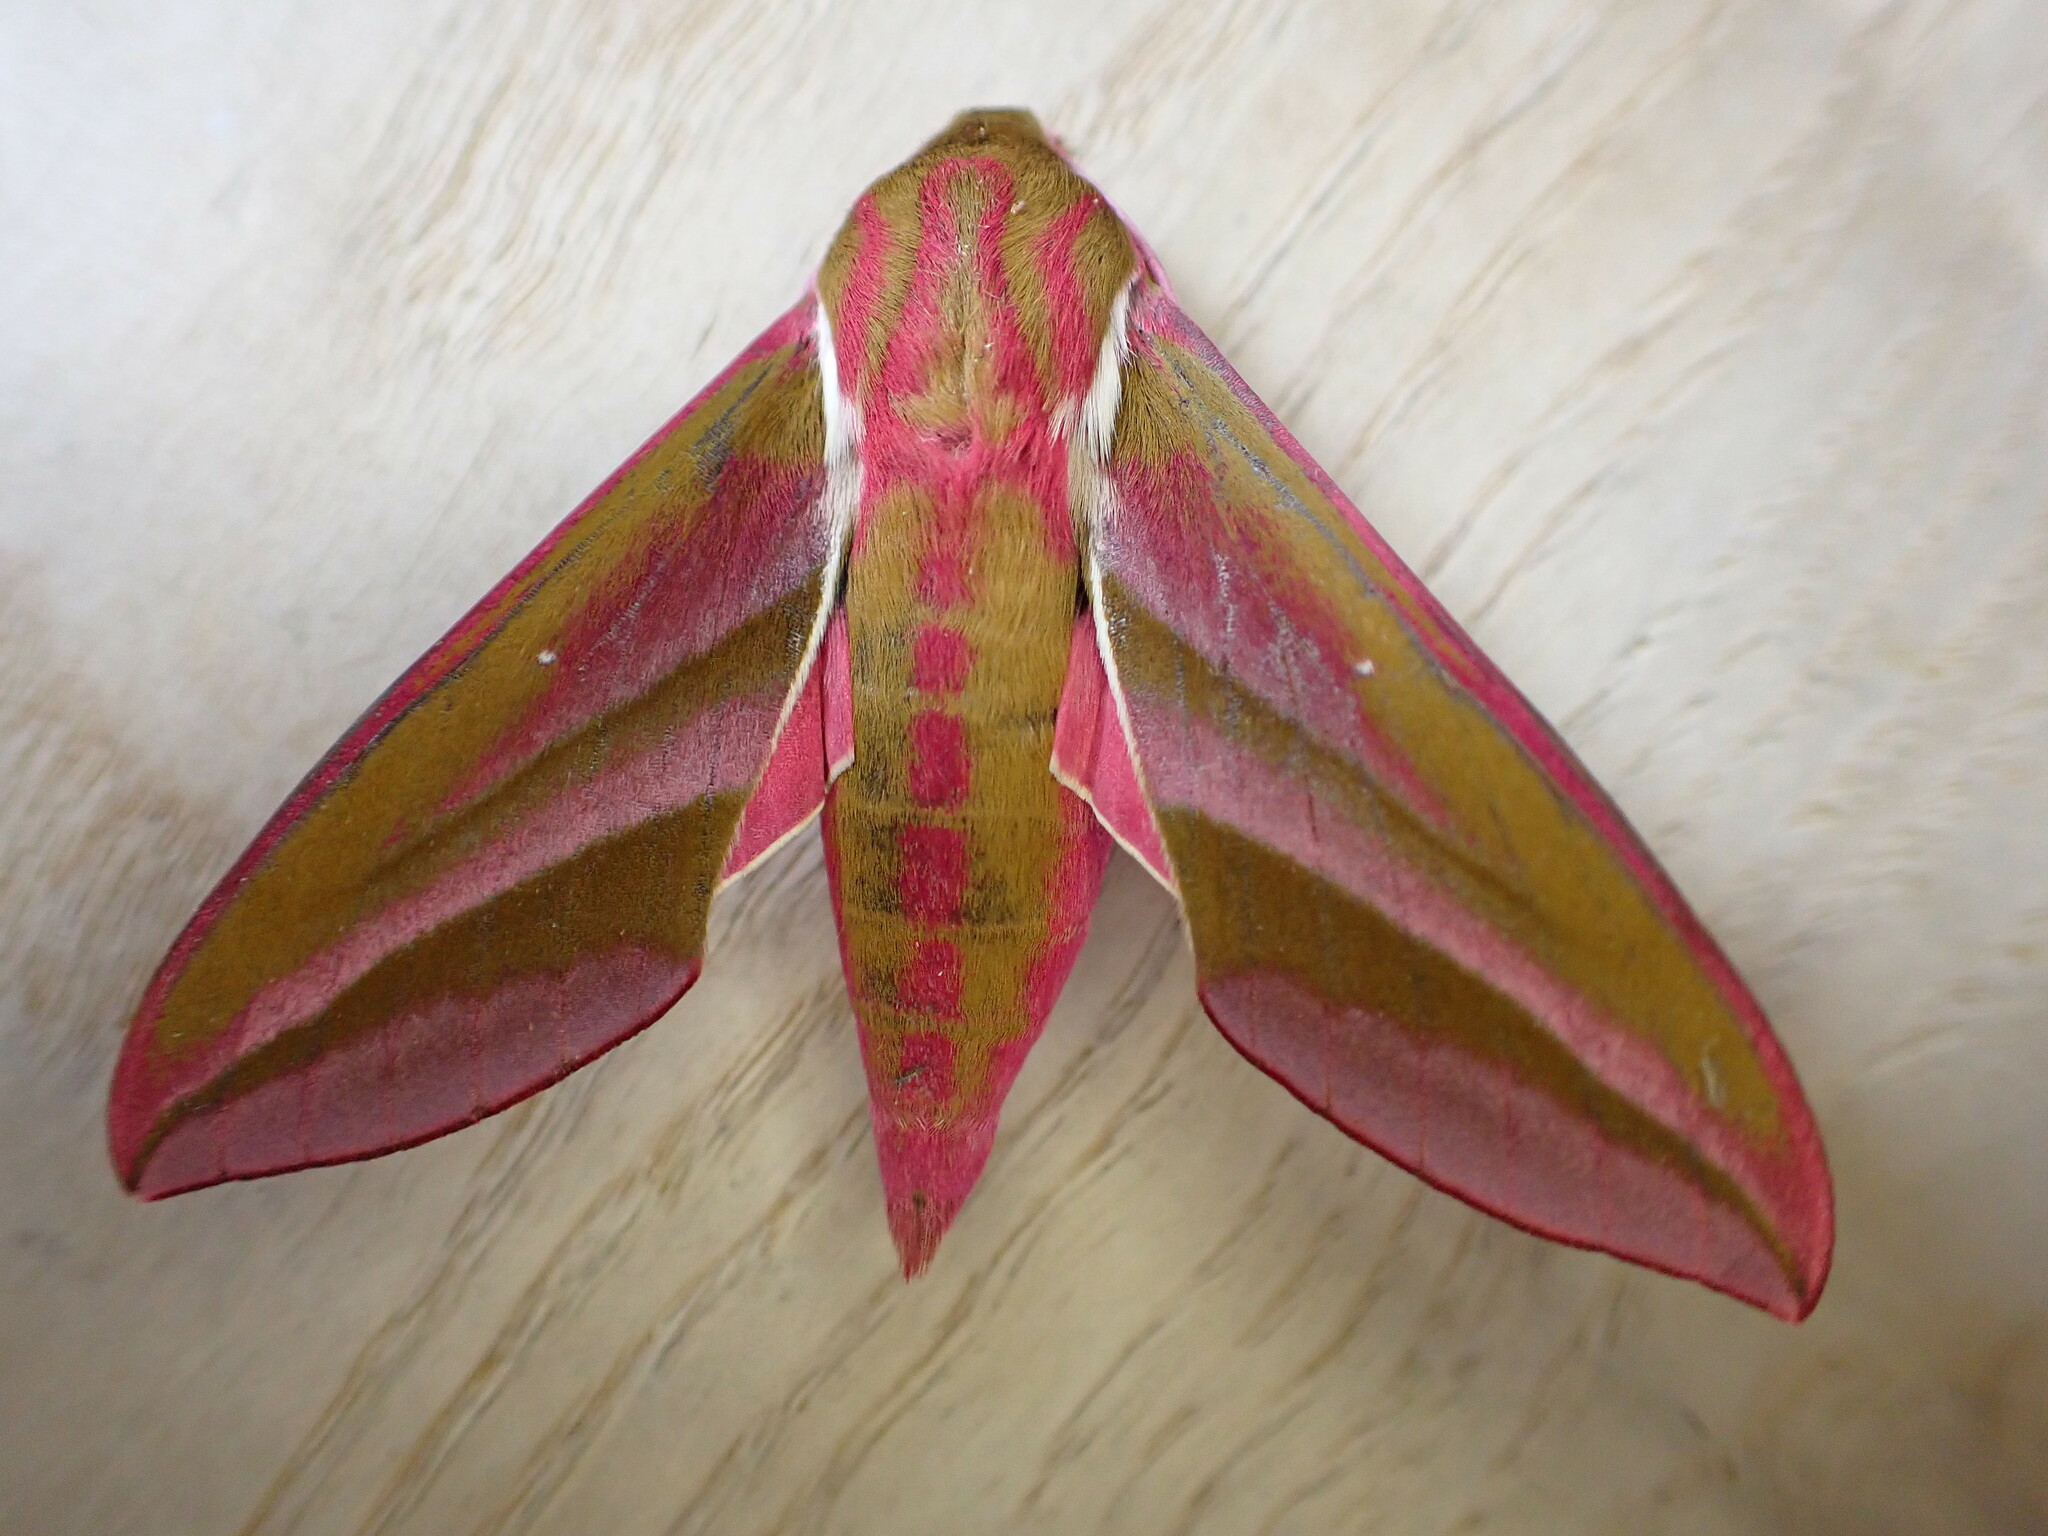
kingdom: Animalia
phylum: Arthropoda
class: Insecta
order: Lepidoptera
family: Sphingidae
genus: Deilephila
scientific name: Deilephila elpenor
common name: Elephant hawk-moth
